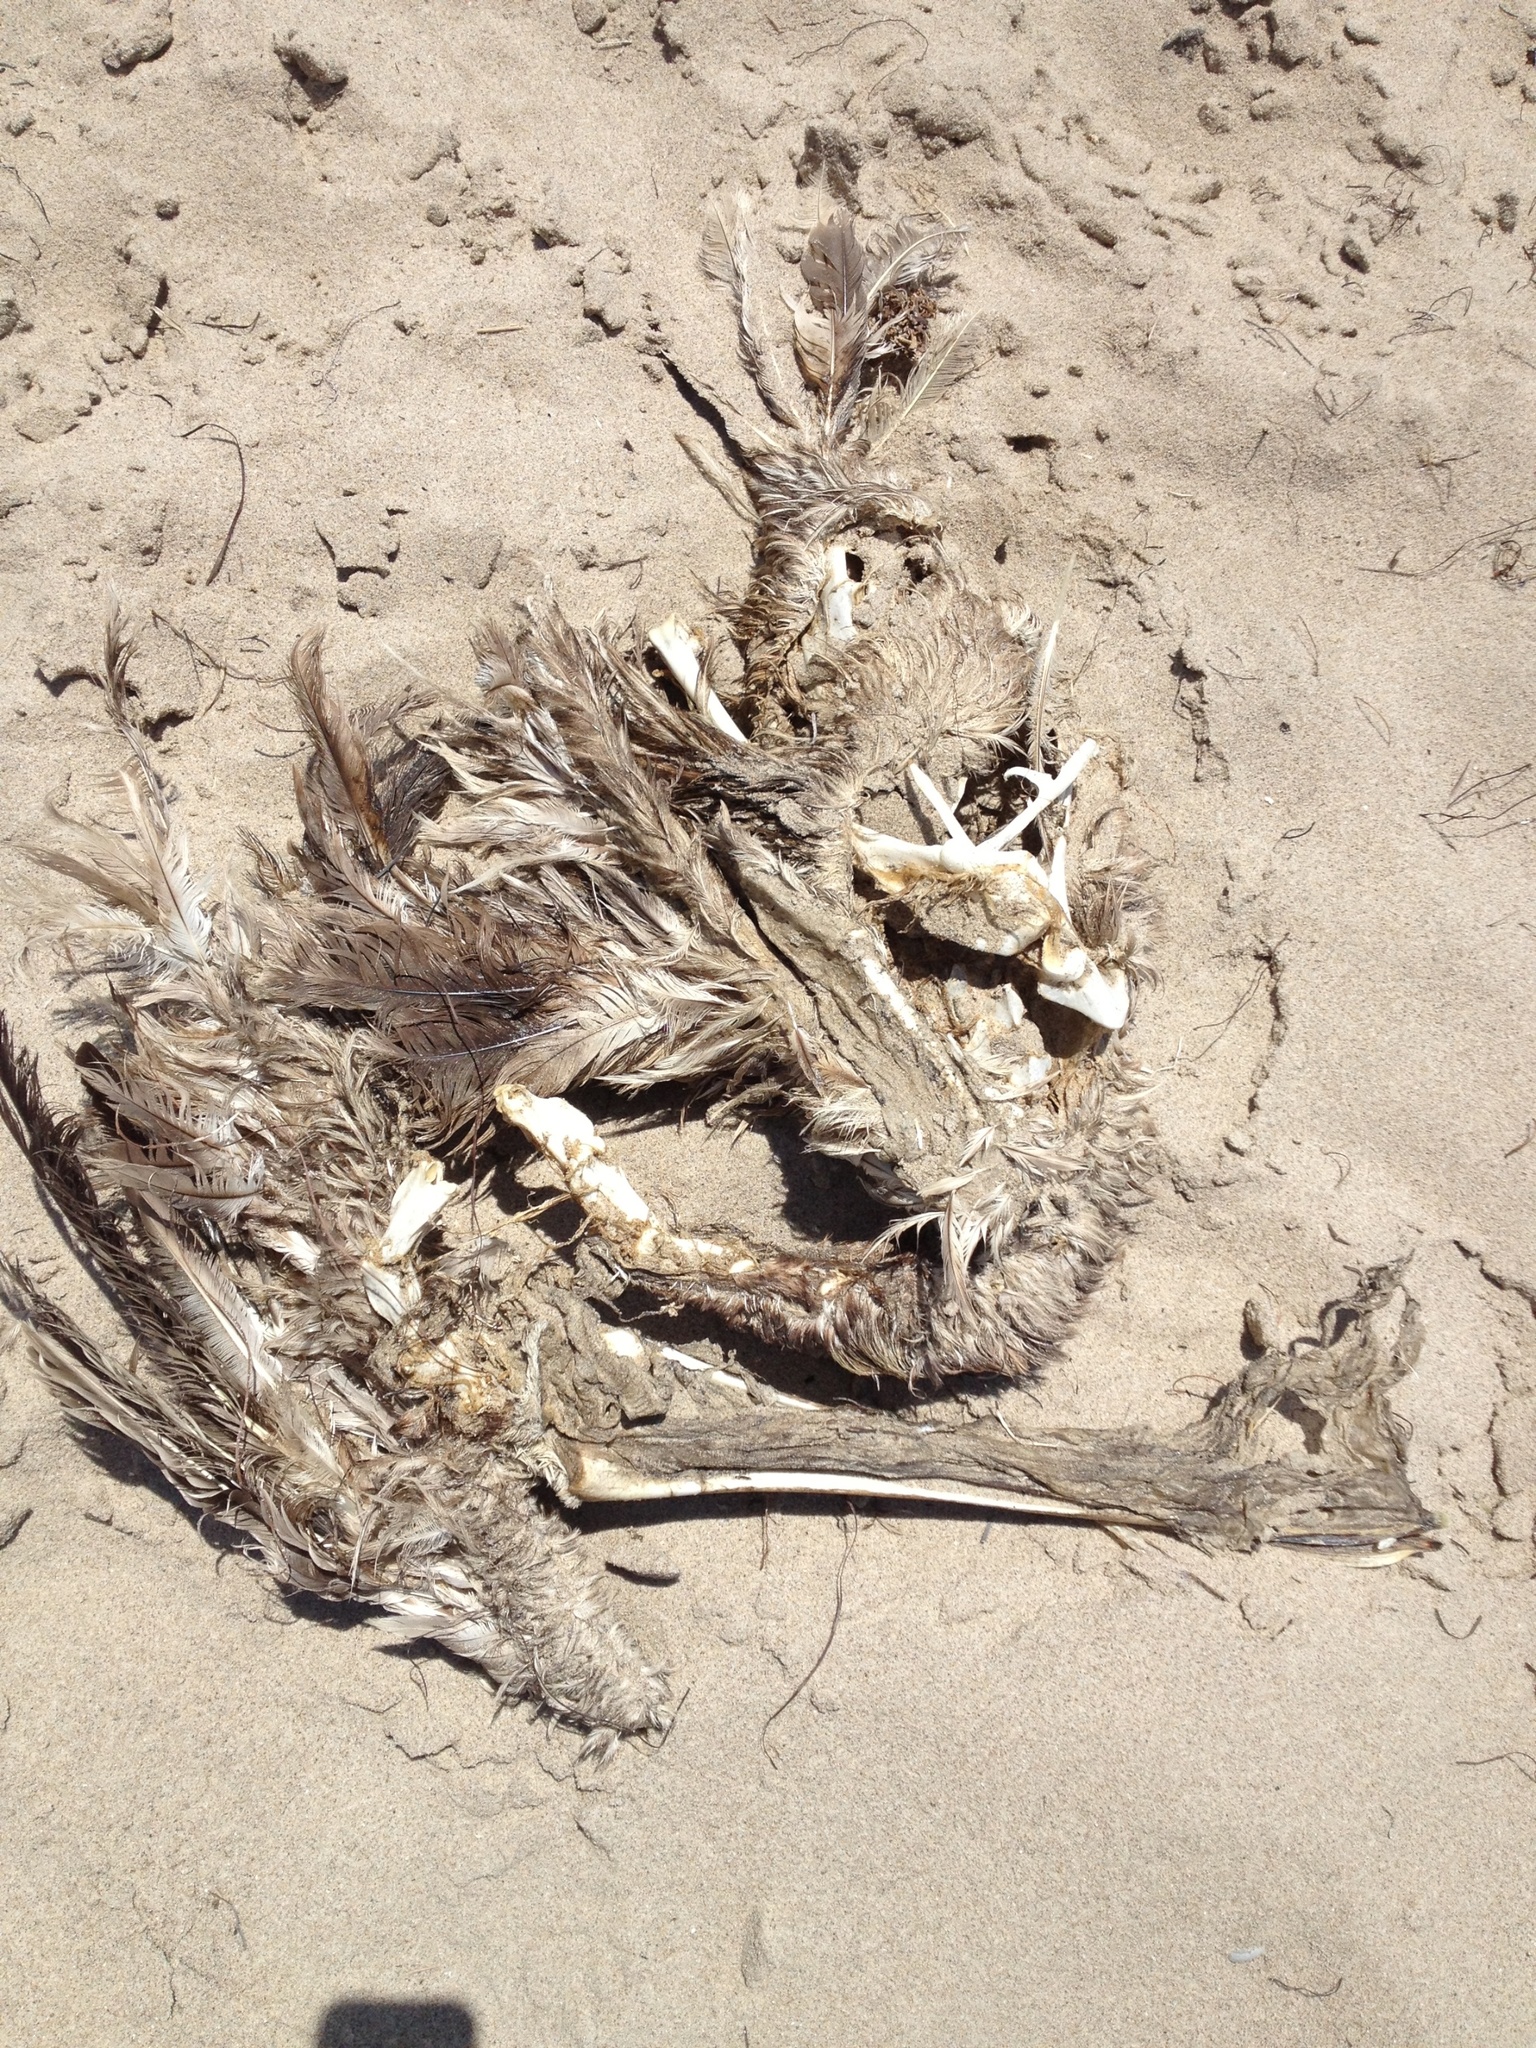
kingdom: Animalia
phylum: Chordata
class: Aves
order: Pelecaniformes
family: Pelecanidae
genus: Pelecanus
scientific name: Pelecanus occidentalis
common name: Brown pelican
